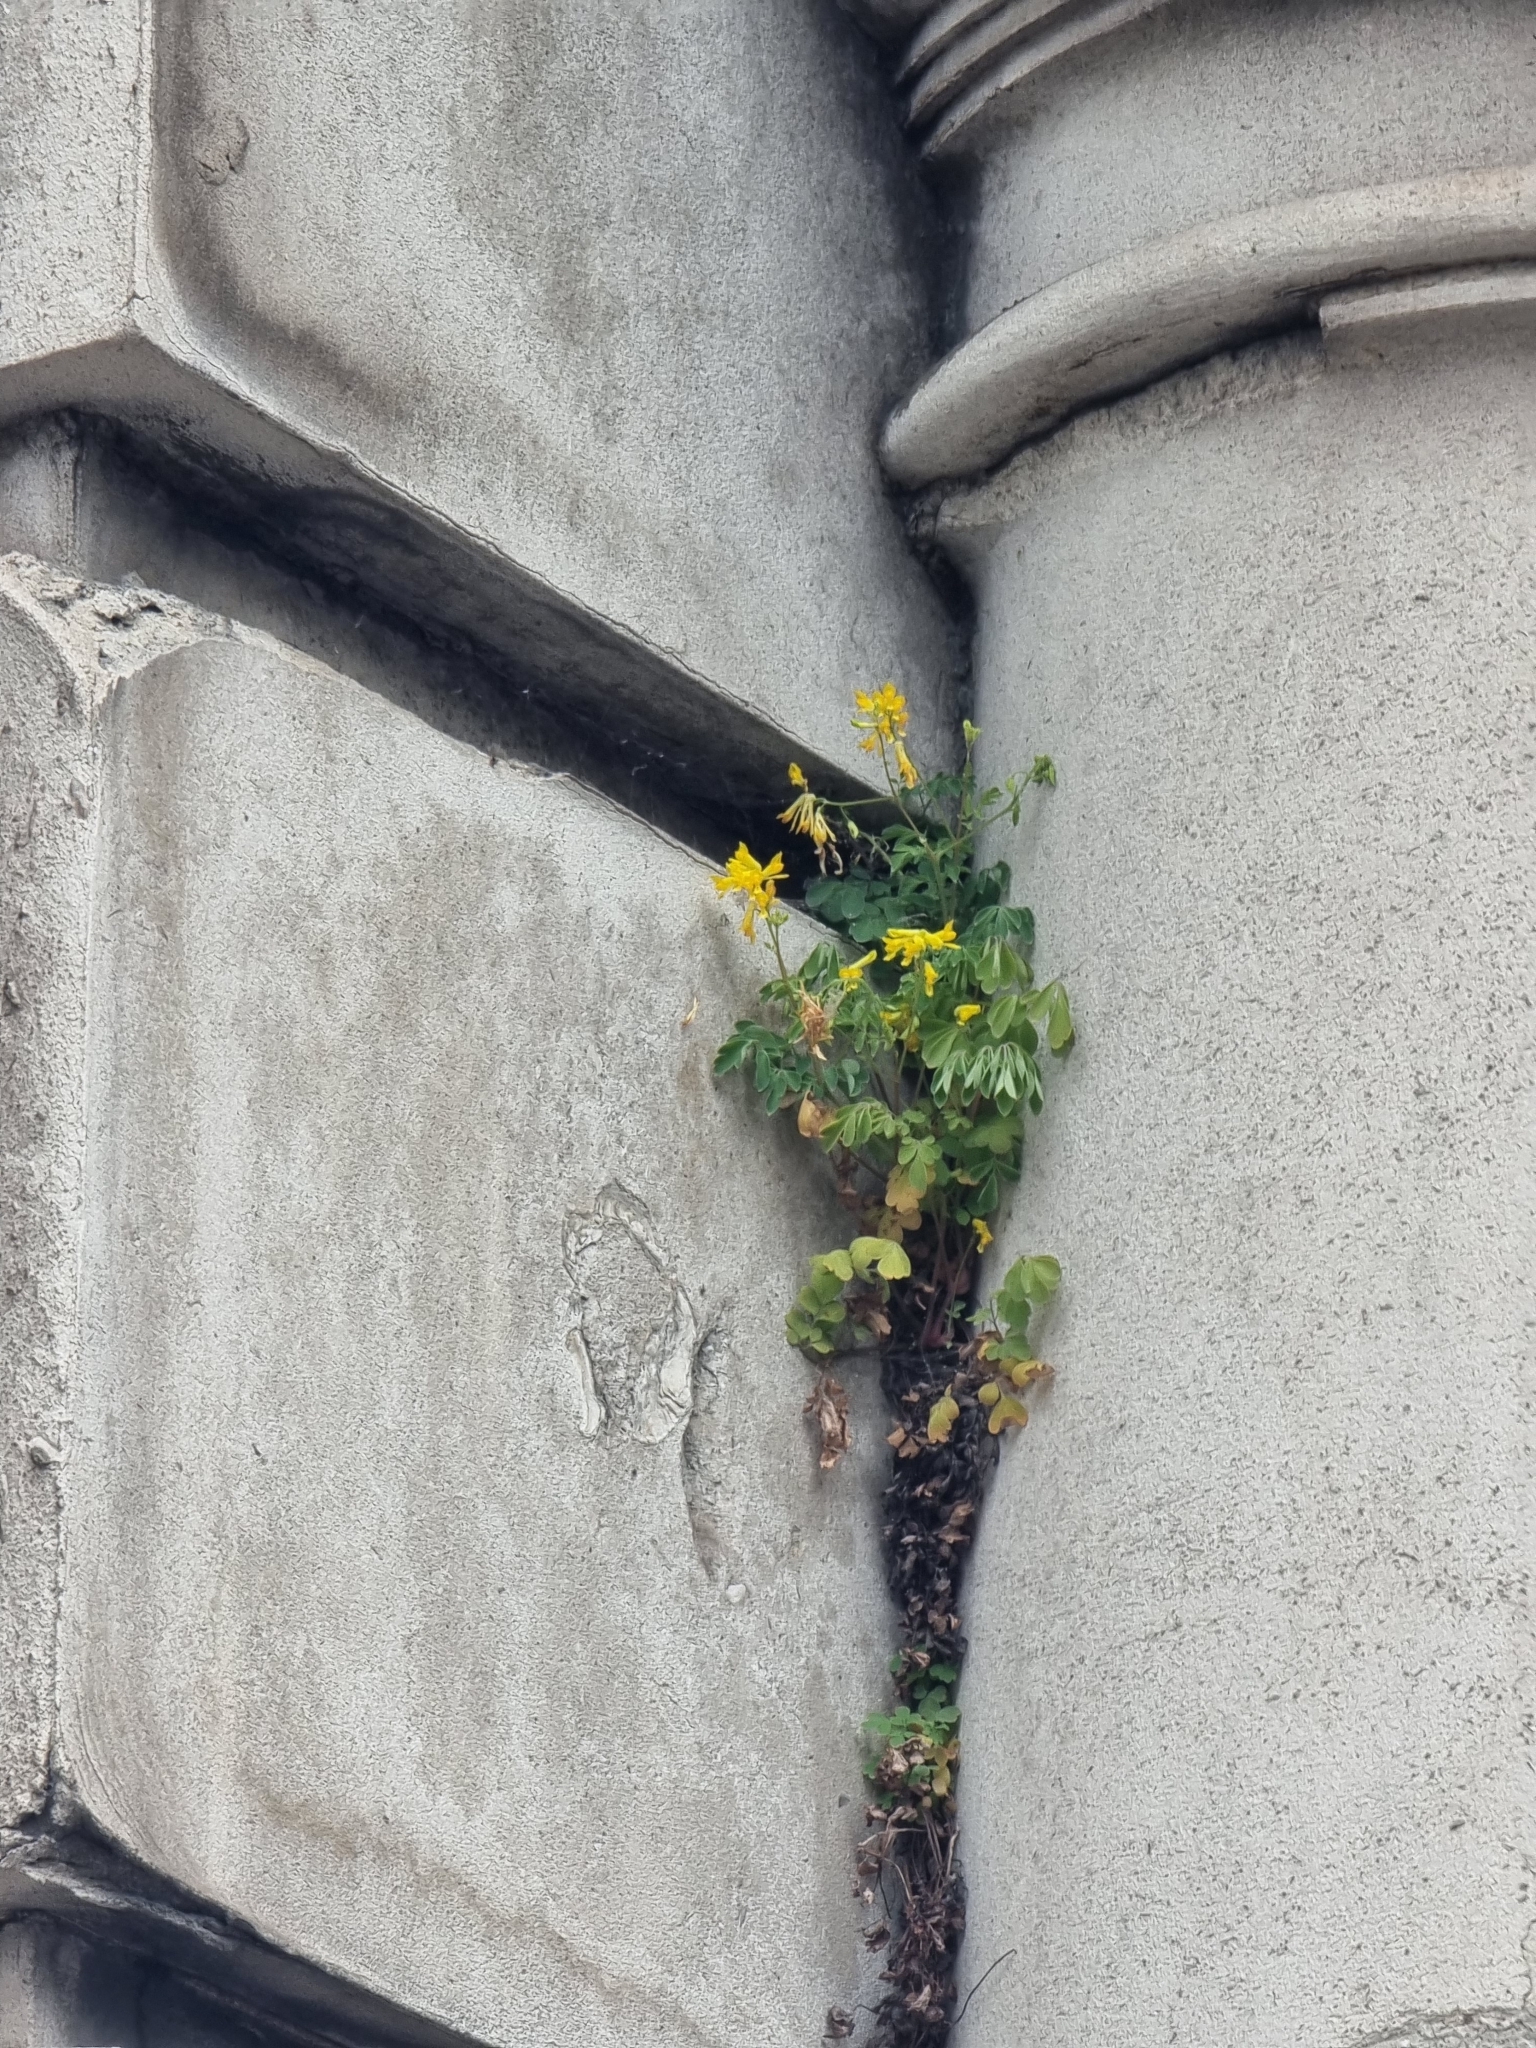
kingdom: Plantae
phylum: Tracheophyta
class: Magnoliopsida
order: Ranunculales
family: Papaveraceae
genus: Pseudofumaria
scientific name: Pseudofumaria lutea
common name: Yellow corydalis
